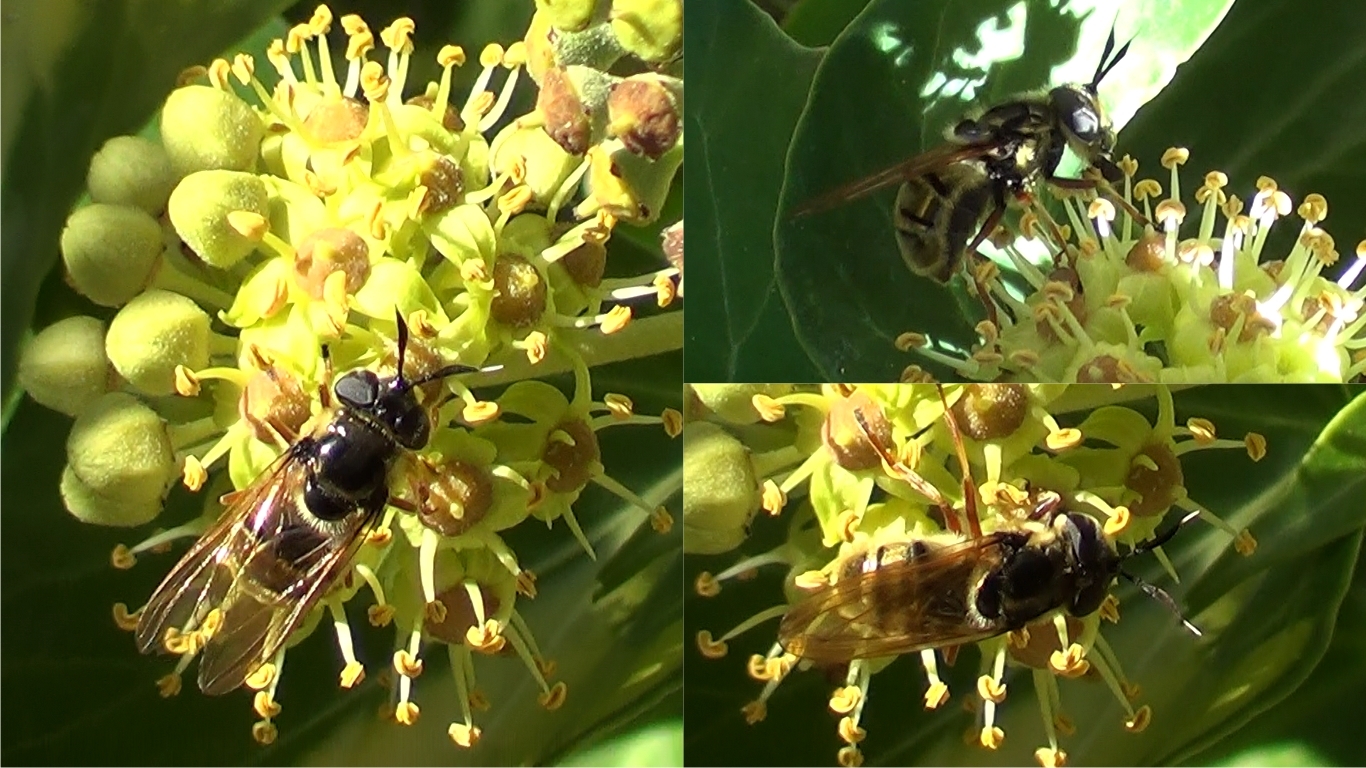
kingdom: Animalia
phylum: Arthropoda
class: Insecta
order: Diptera
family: Syrphidae
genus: Callicera
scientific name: Callicera spinolae
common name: Golden hoverfly
